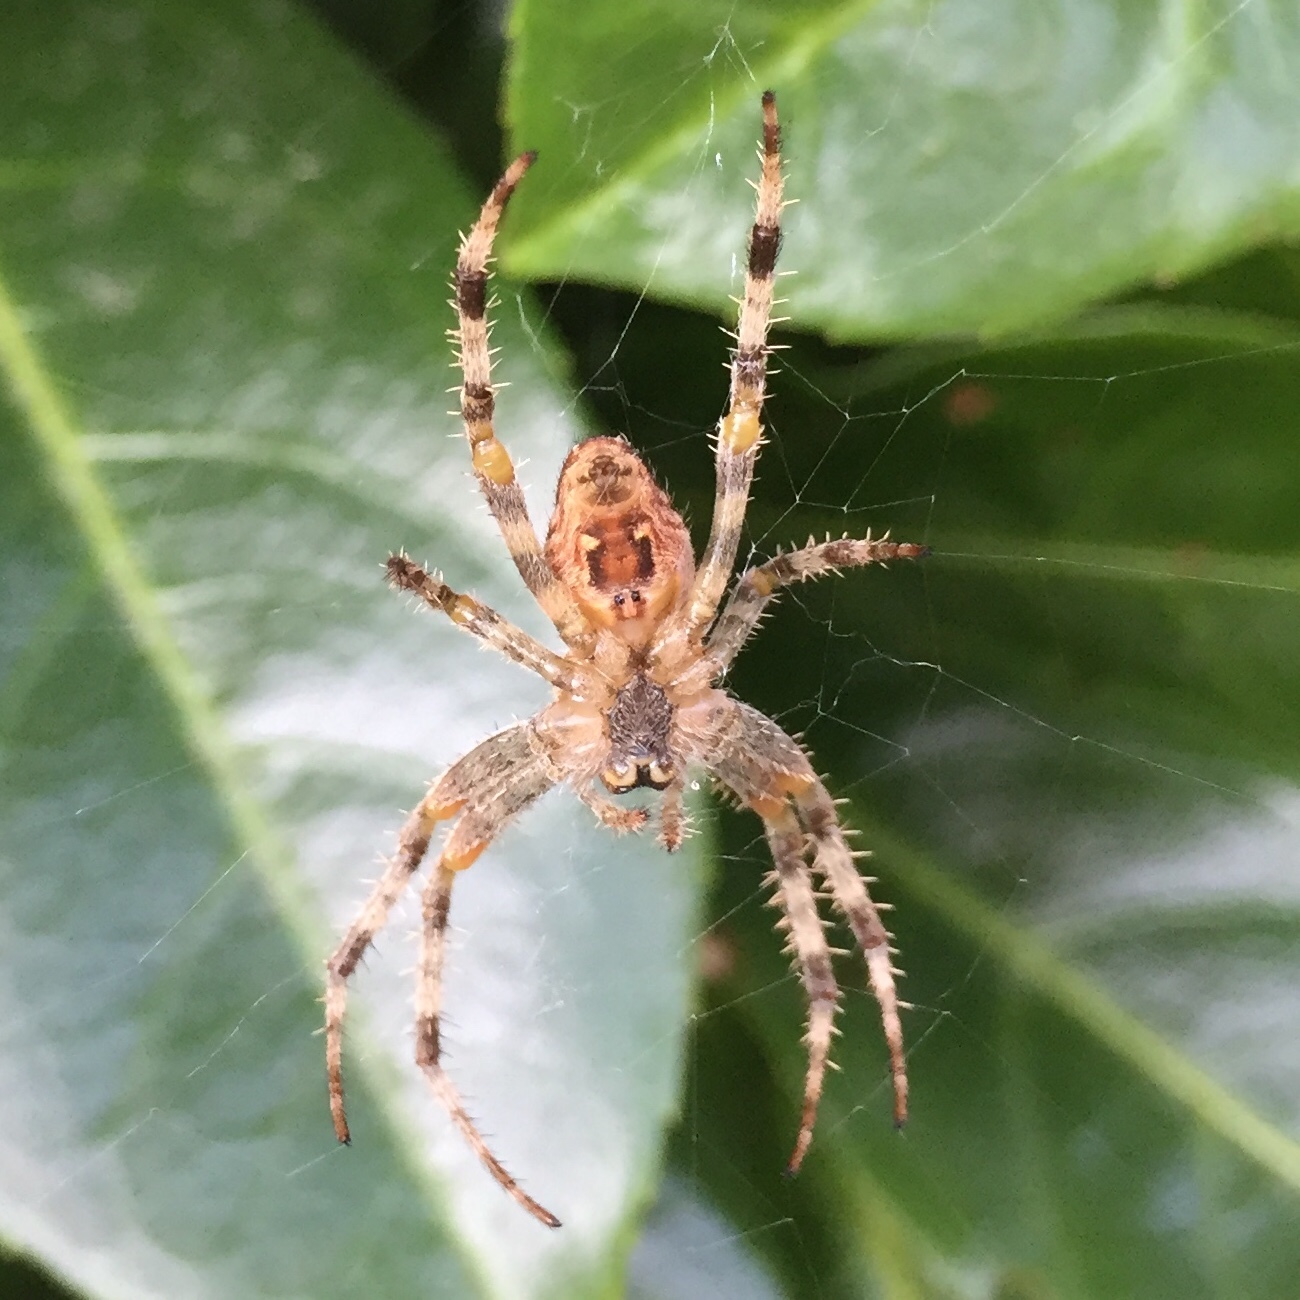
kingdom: Animalia
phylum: Arthropoda
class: Arachnida
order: Araneae
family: Araneidae
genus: Araneus
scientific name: Araneus diadematus
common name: Cross orbweaver
